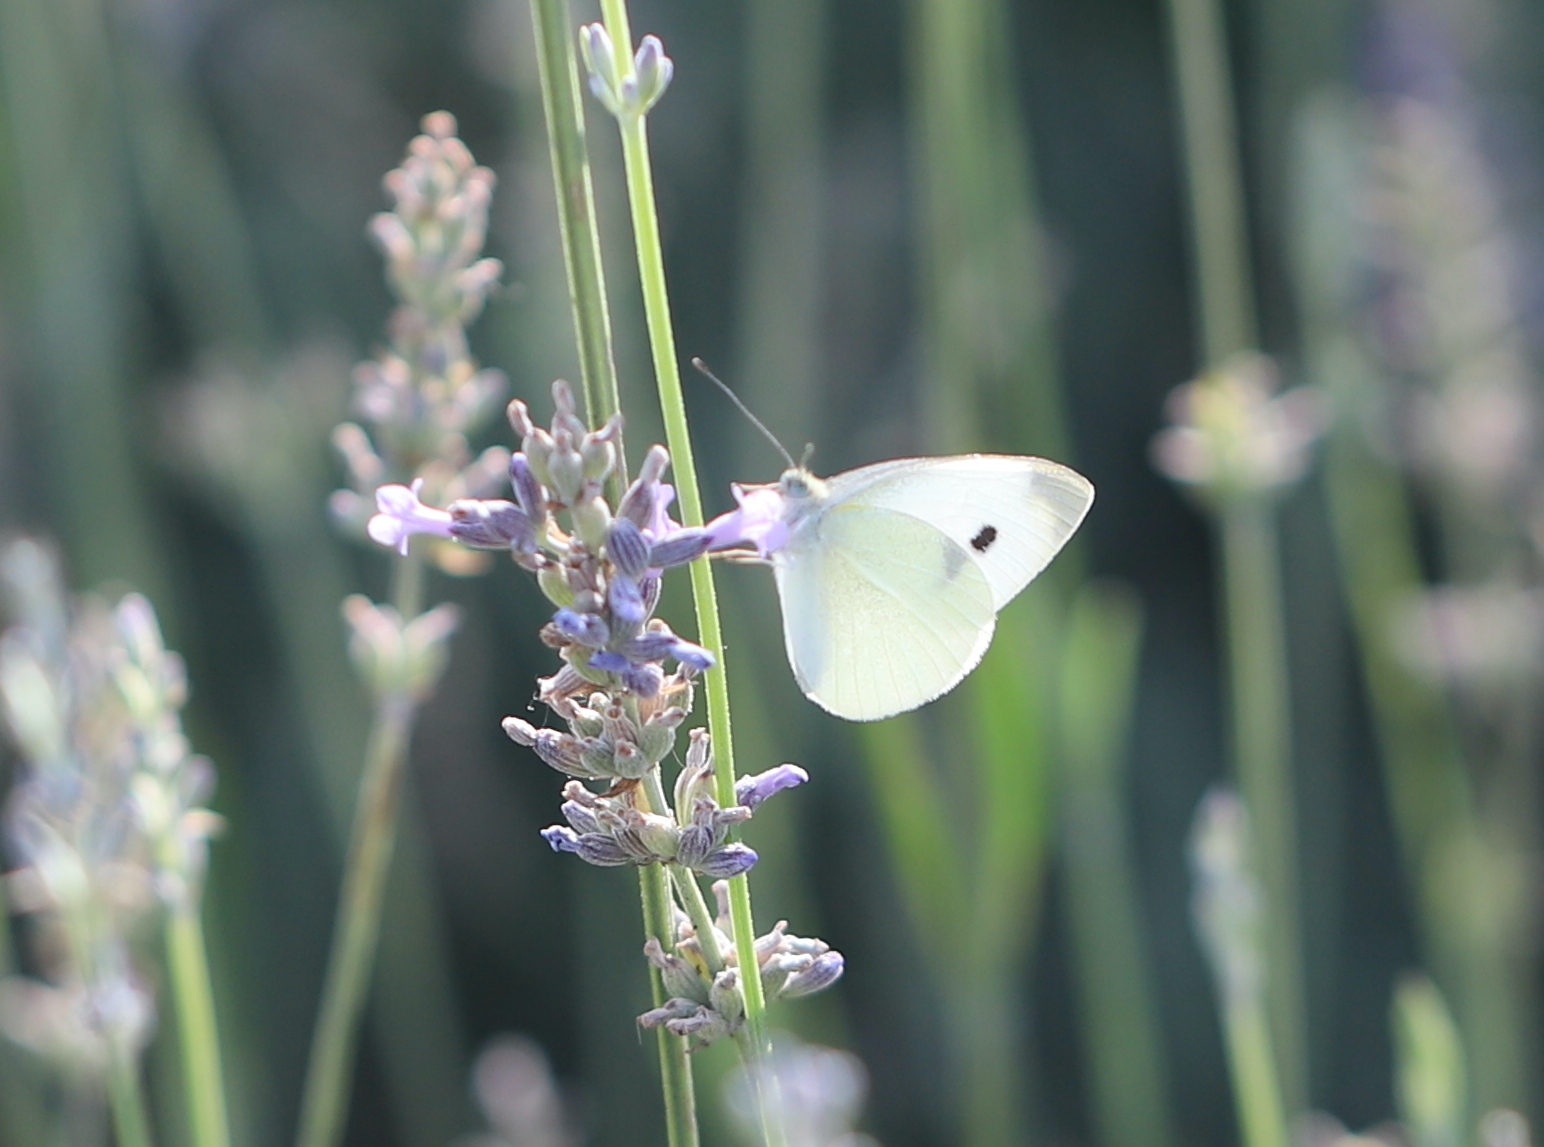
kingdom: Animalia
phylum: Arthropoda
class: Insecta
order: Lepidoptera
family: Pieridae
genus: Pieris
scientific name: Pieris rapae
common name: Small white
